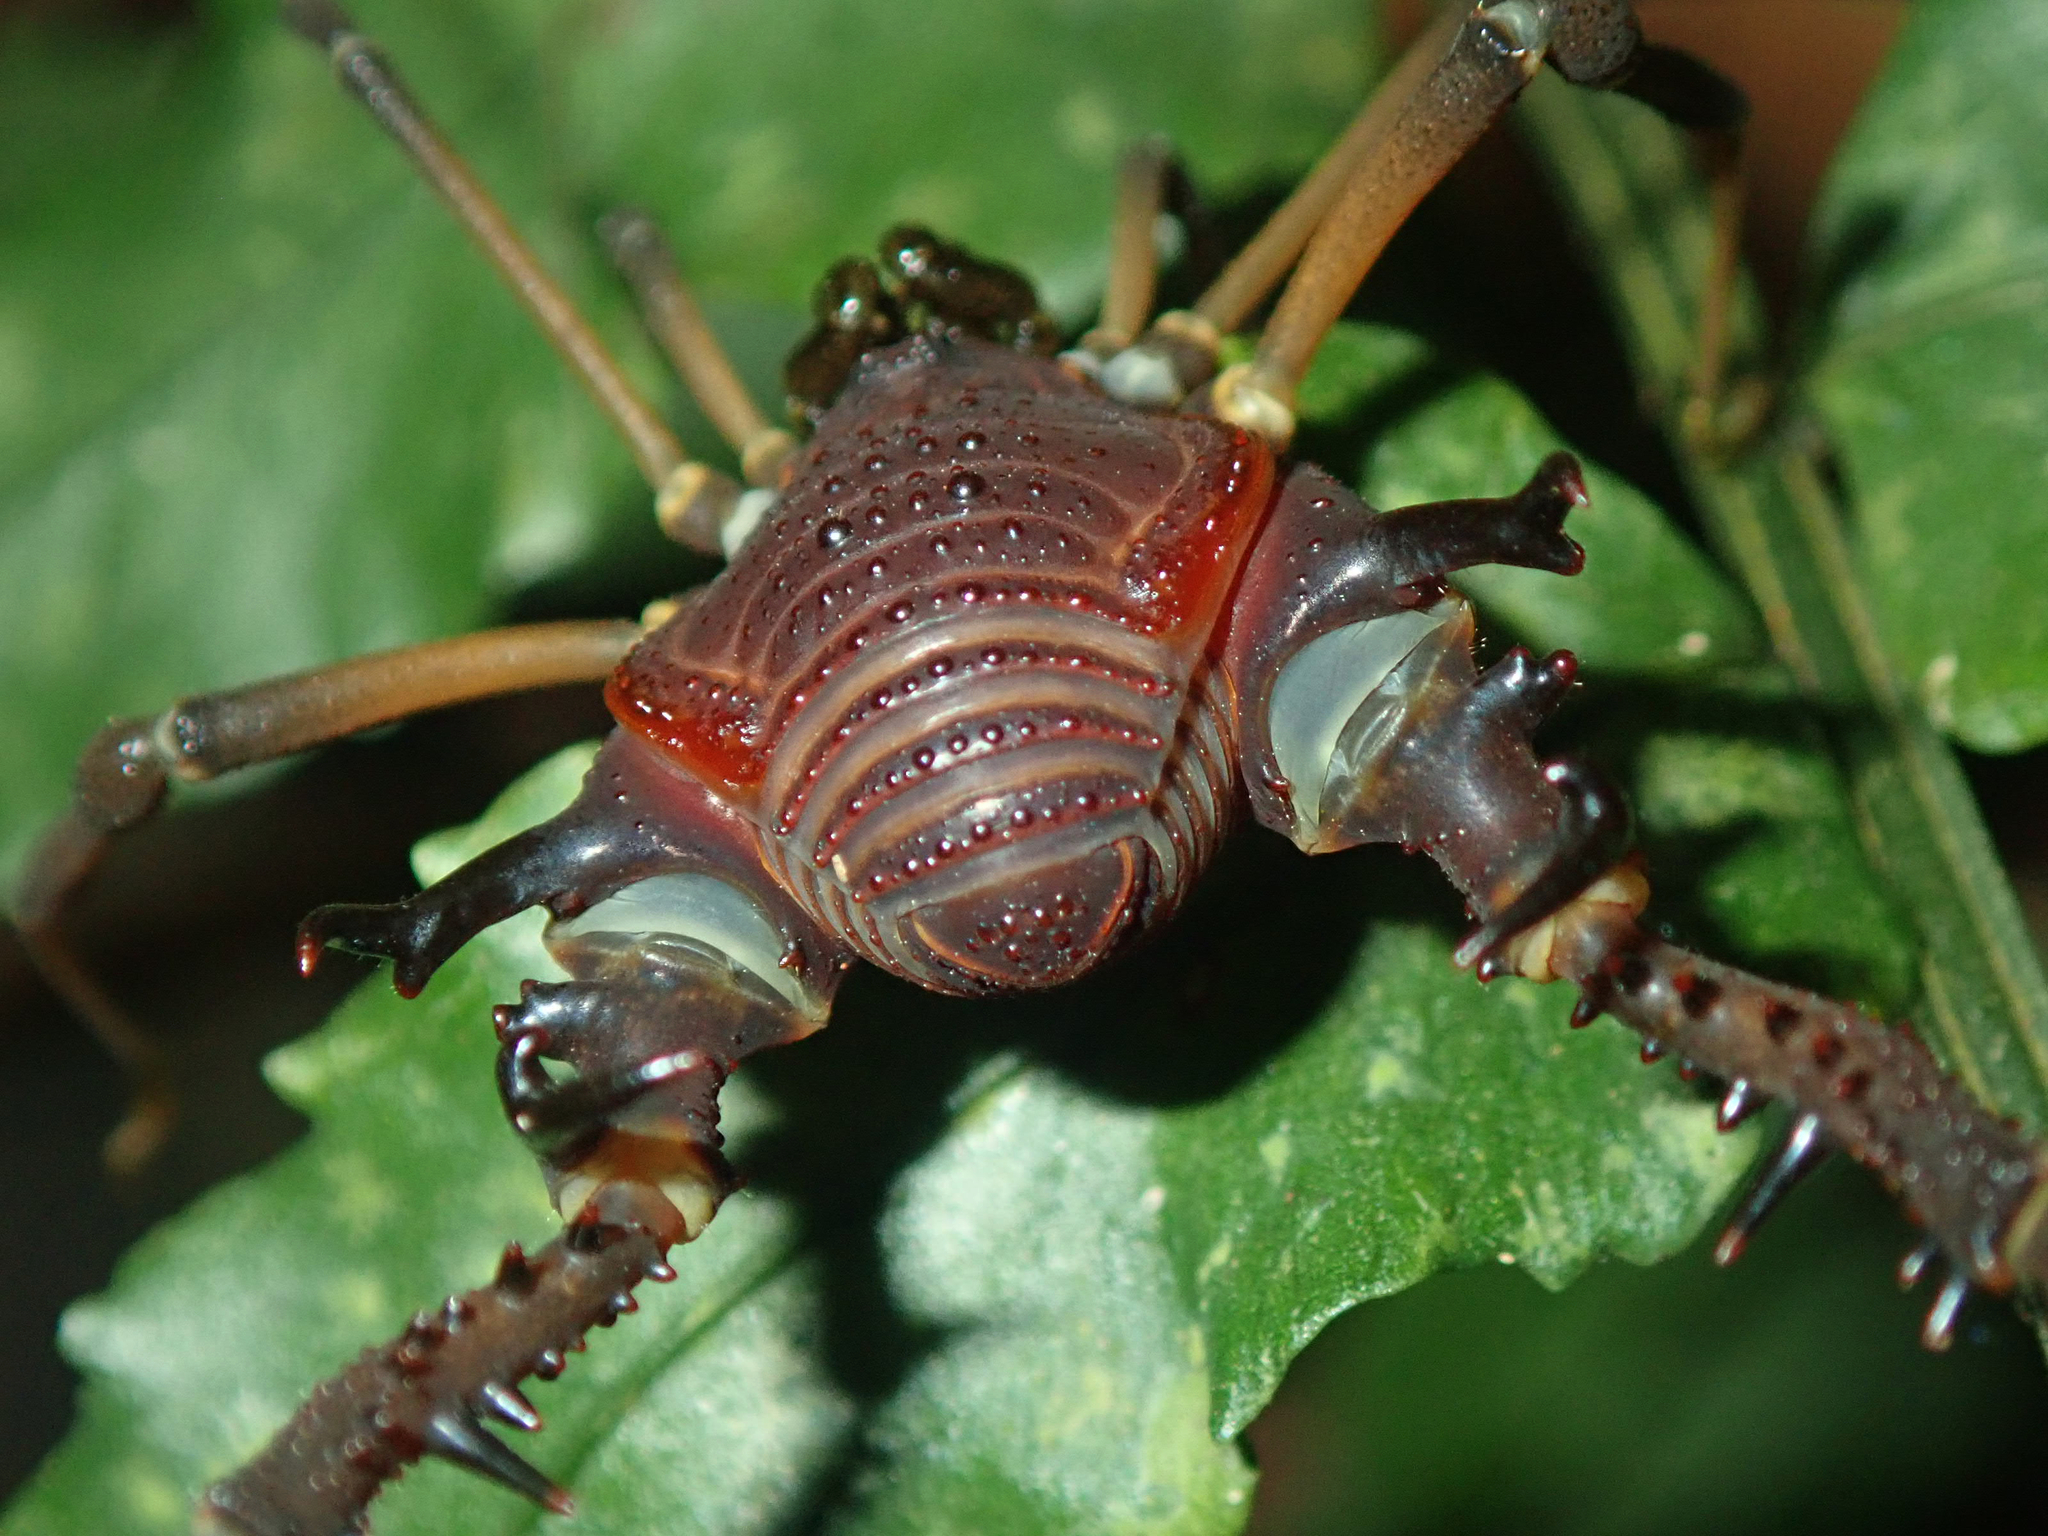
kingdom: Animalia
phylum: Arthropoda
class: Arachnida
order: Opiliones
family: Gonyleptidae
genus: Bunopachylus
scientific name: Bunopachylus armatissimus
